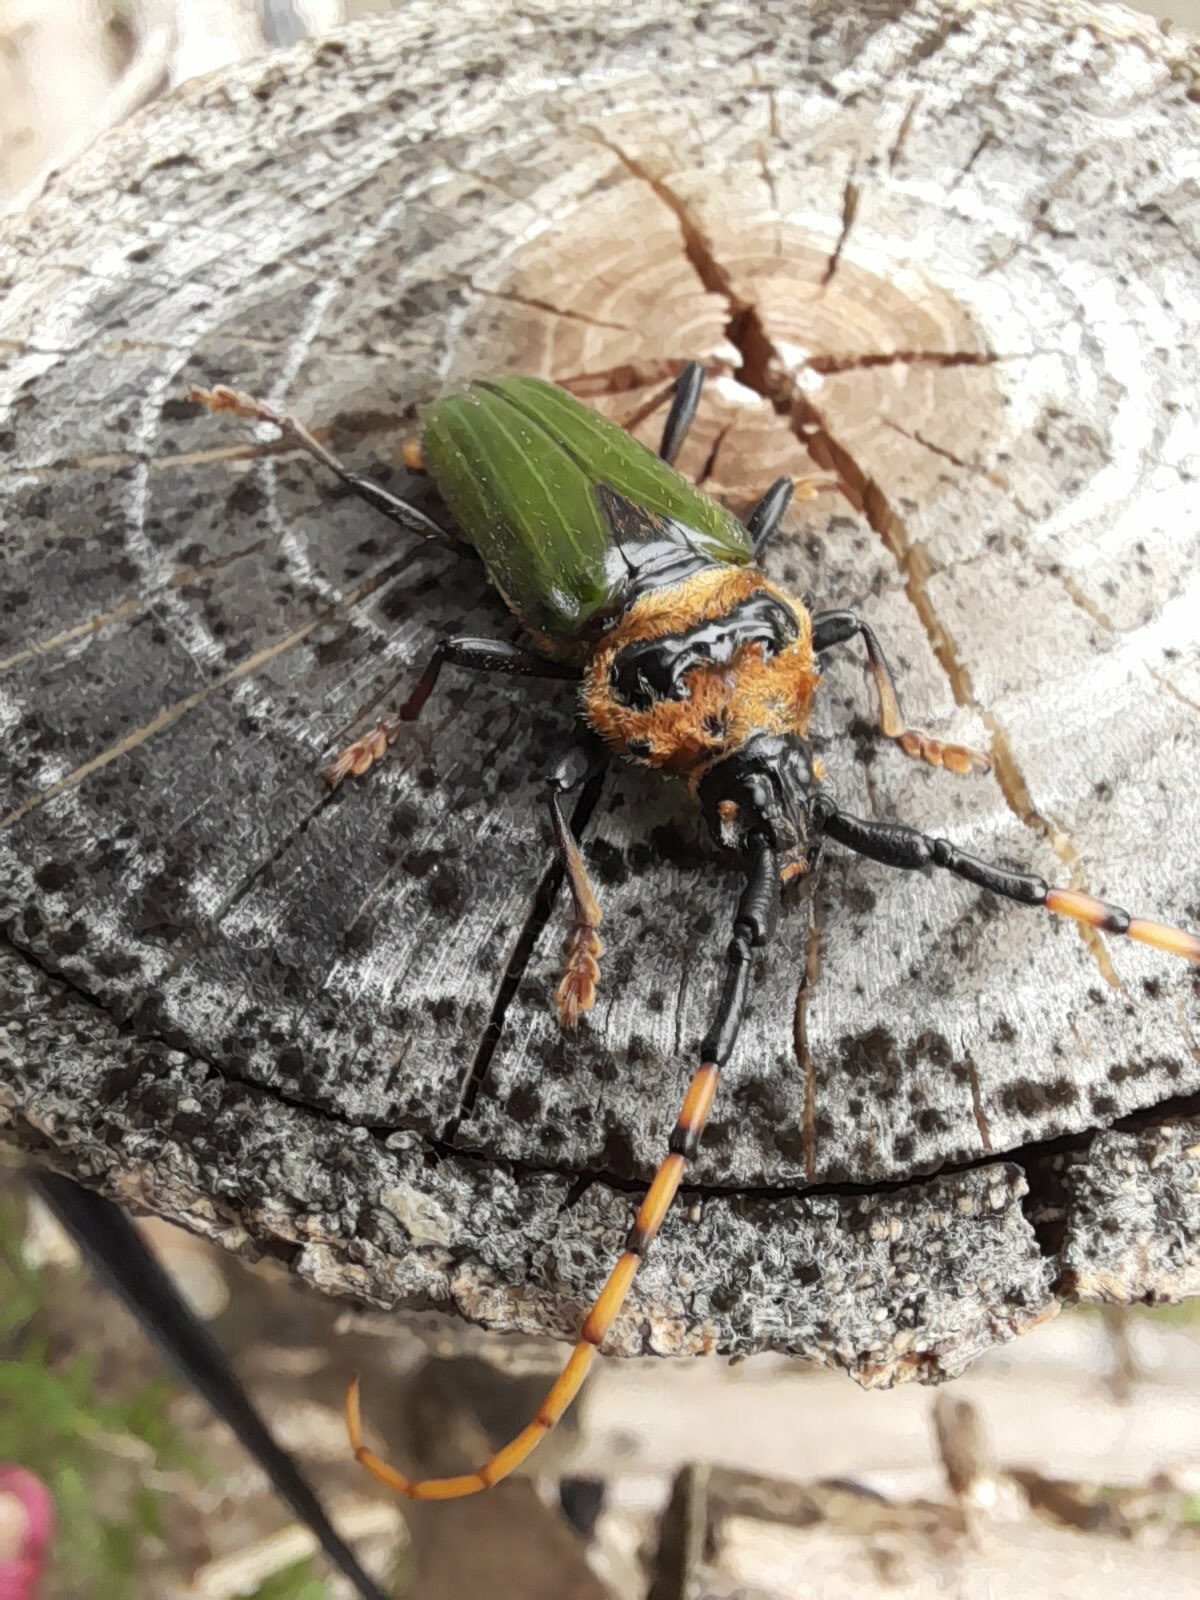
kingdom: Animalia
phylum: Arthropoda
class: Insecta
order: Coleoptera
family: Cerambycidae
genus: Retrachydes
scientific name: Retrachydes thoracicus
